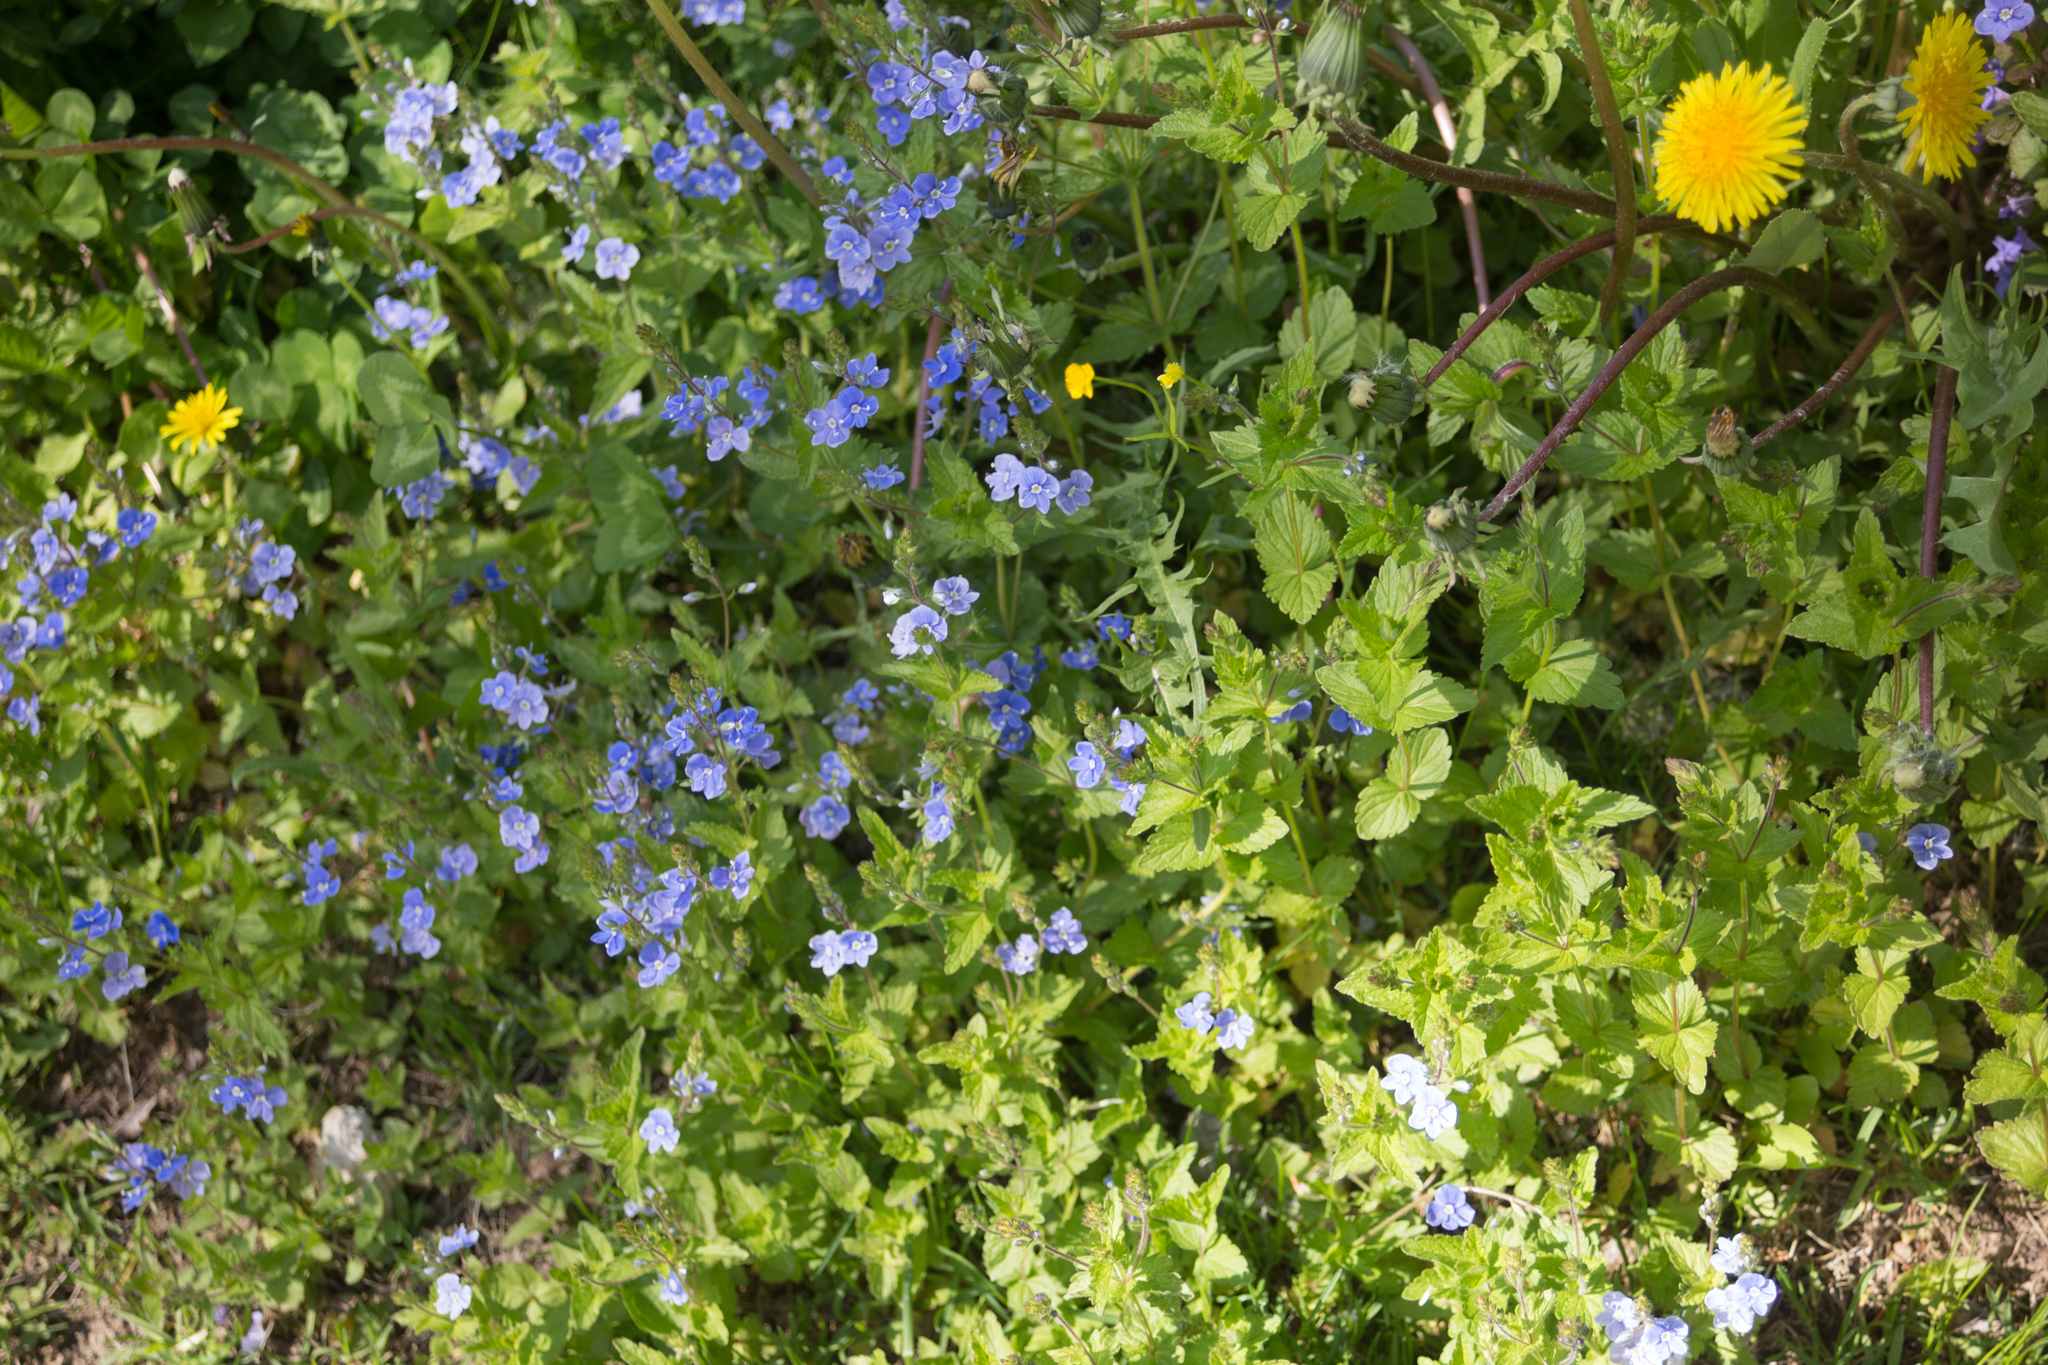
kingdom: Plantae
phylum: Tracheophyta
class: Magnoliopsida
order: Lamiales
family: Plantaginaceae
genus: Veronica
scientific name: Veronica chamaedrys
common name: Germander speedwell
